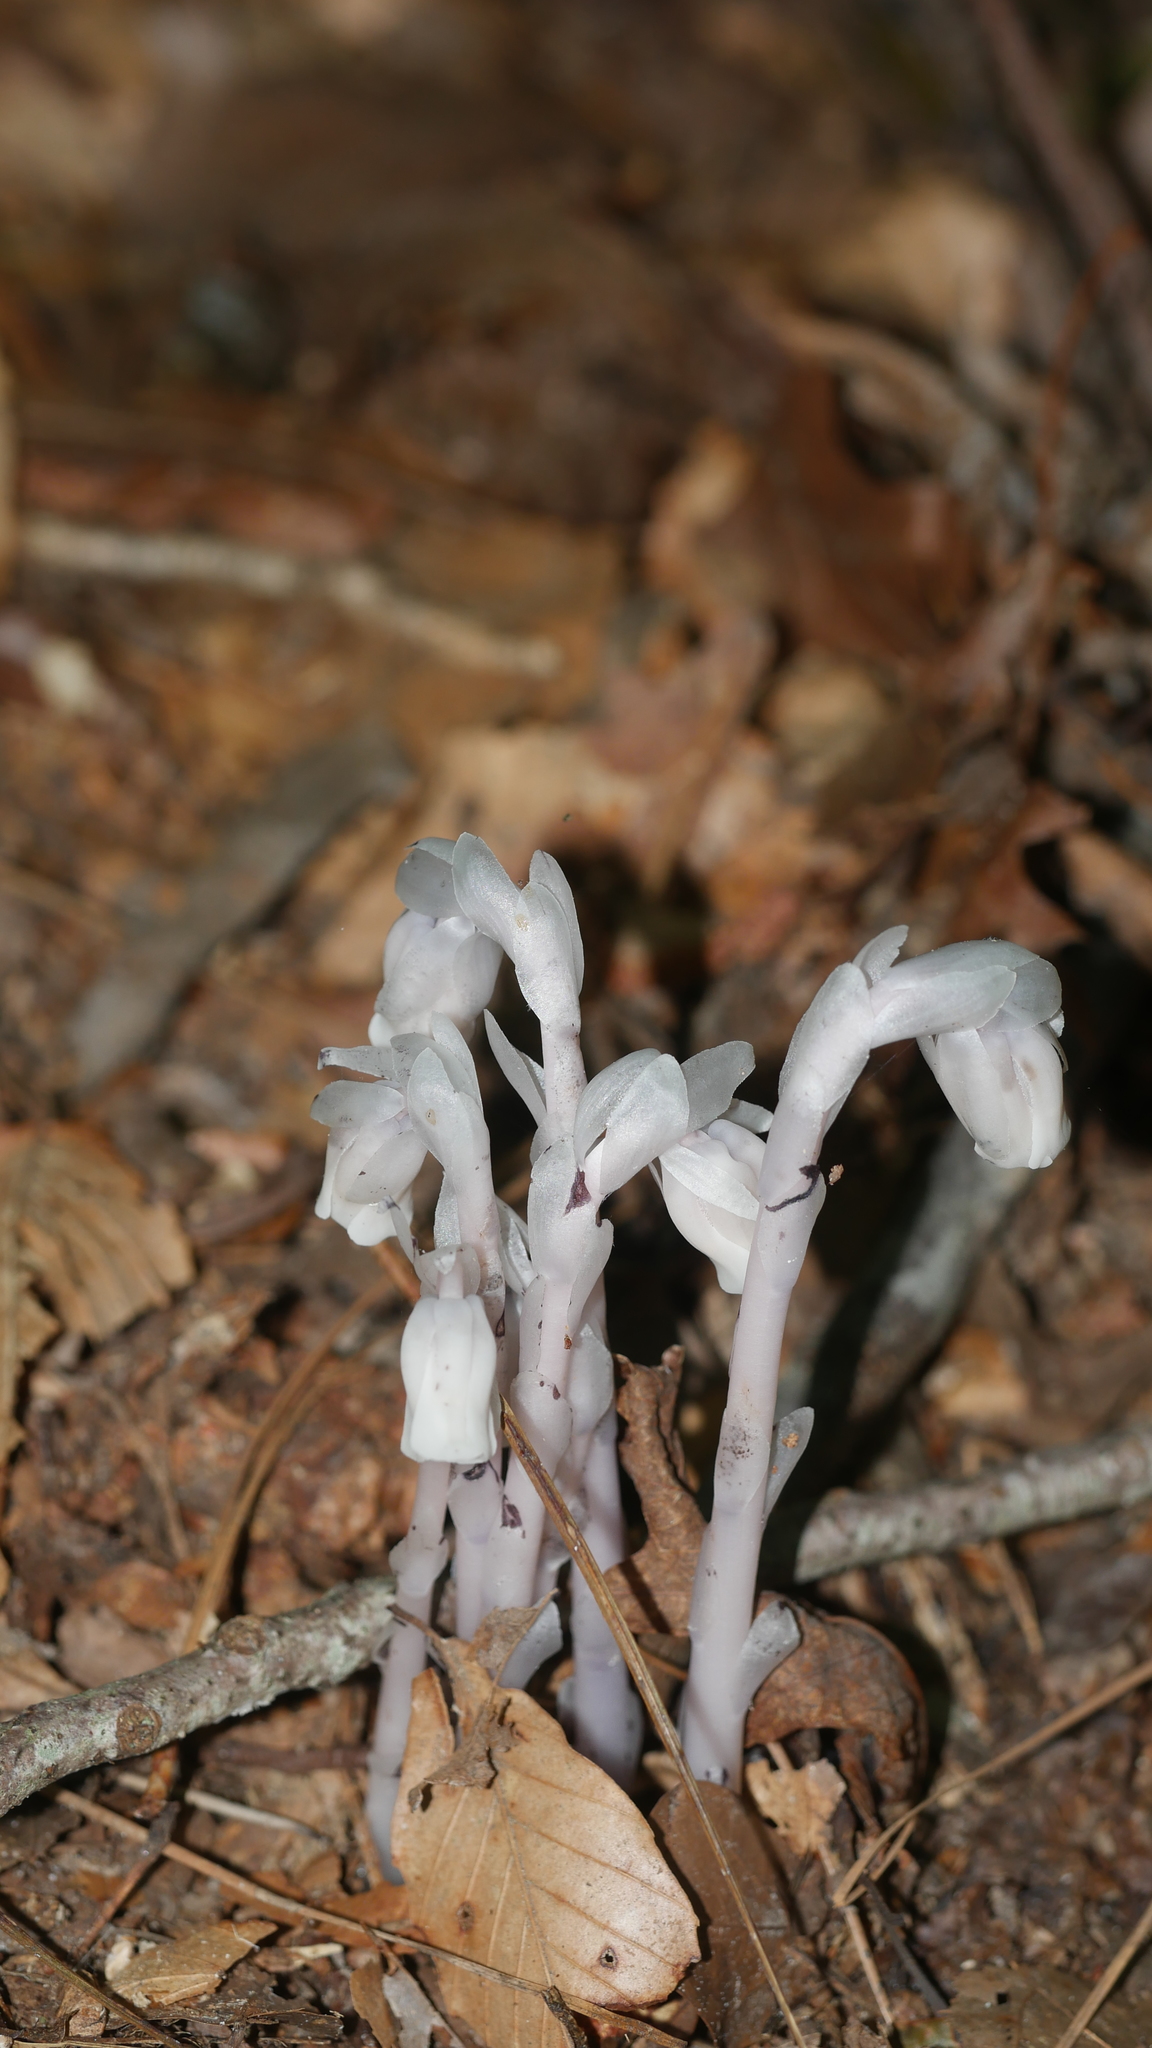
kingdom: Plantae
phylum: Tracheophyta
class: Magnoliopsida
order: Ericales
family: Ericaceae
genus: Monotropa
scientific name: Monotropa uniflora
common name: Convulsion root
